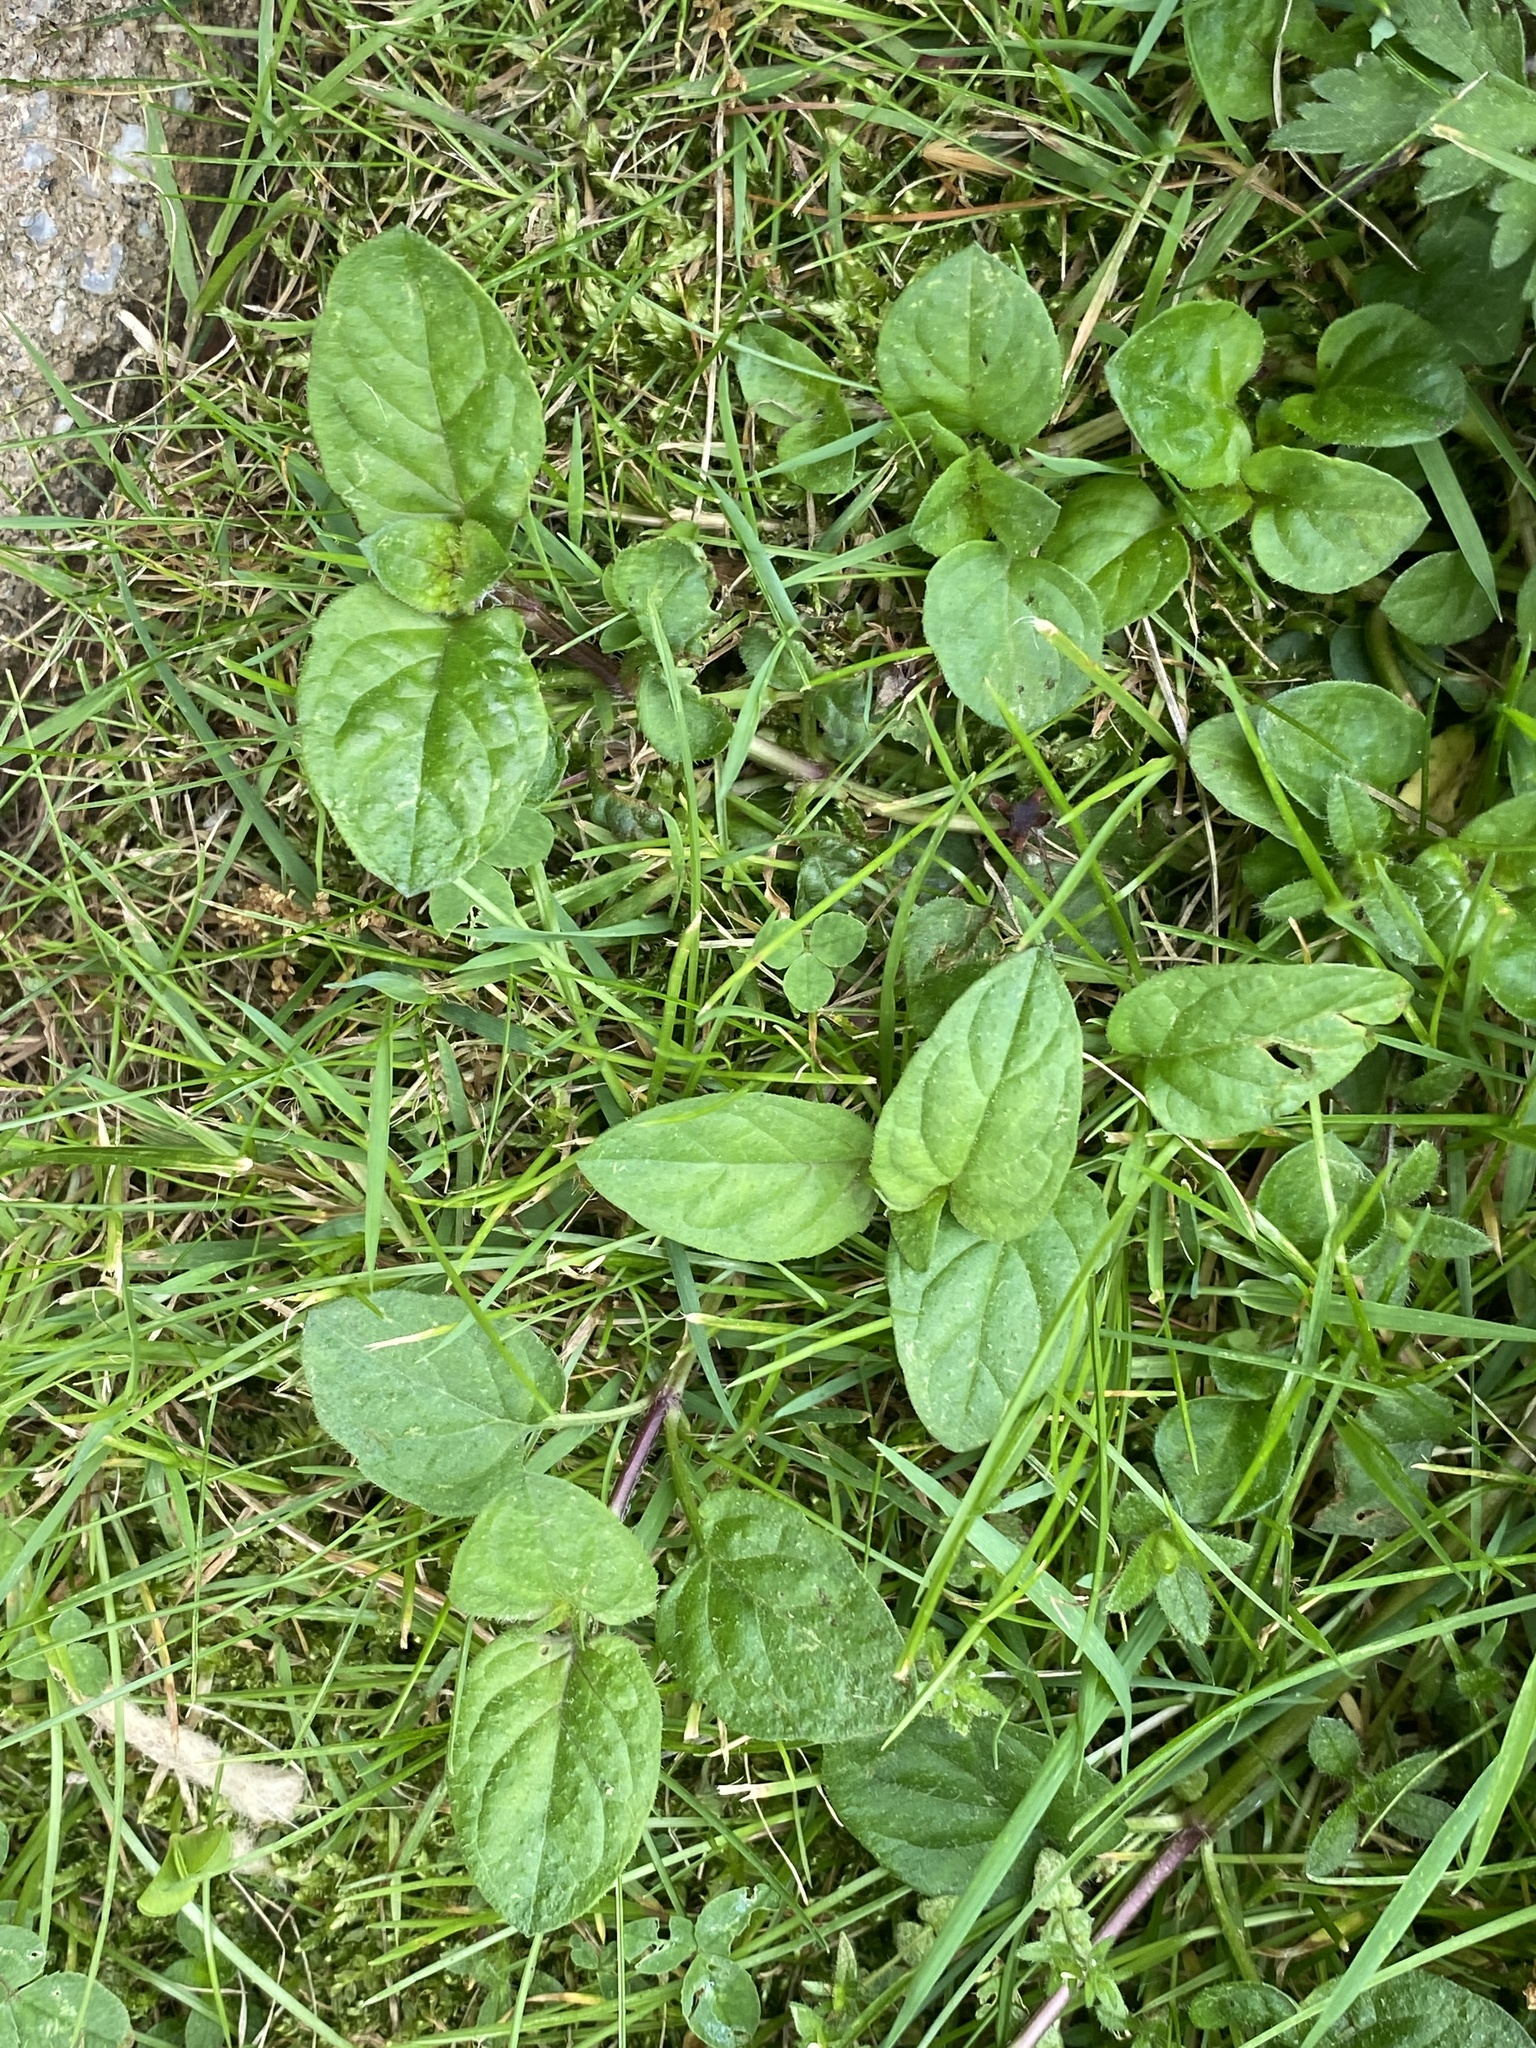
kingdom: Plantae
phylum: Tracheophyta
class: Magnoliopsida
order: Lamiales
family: Lamiaceae
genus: Prunella
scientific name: Prunella vulgaris
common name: Heal-all
